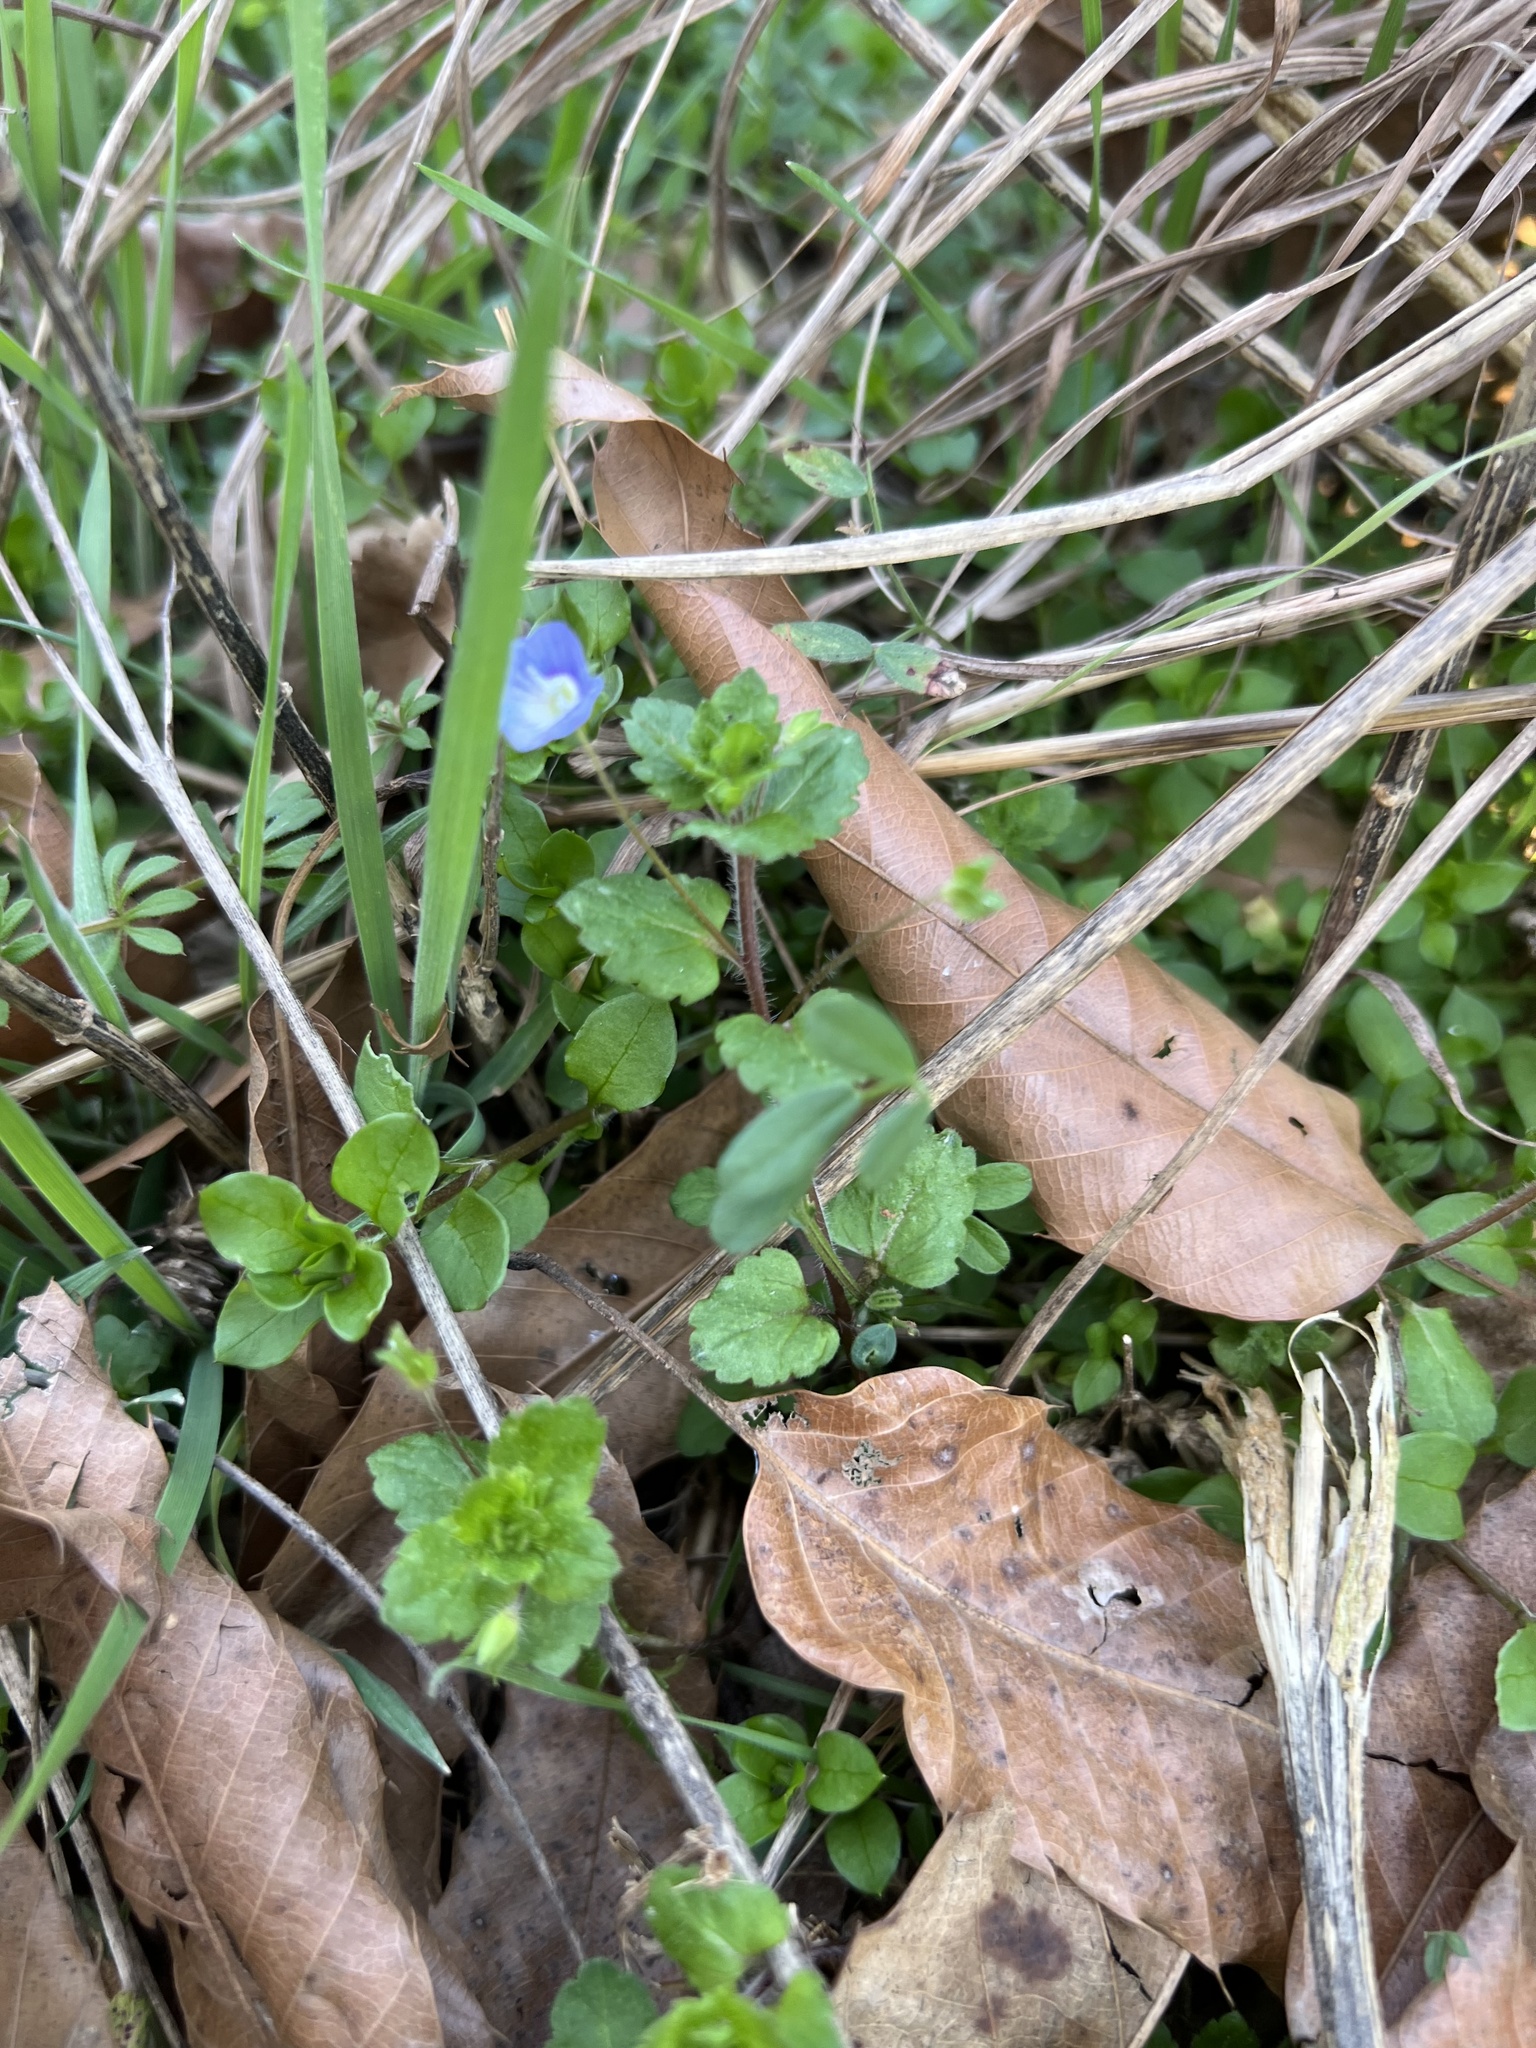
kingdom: Plantae
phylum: Tracheophyta
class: Magnoliopsida
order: Lamiales
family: Plantaginaceae
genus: Veronica
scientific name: Veronica persica
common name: Common field-speedwell
